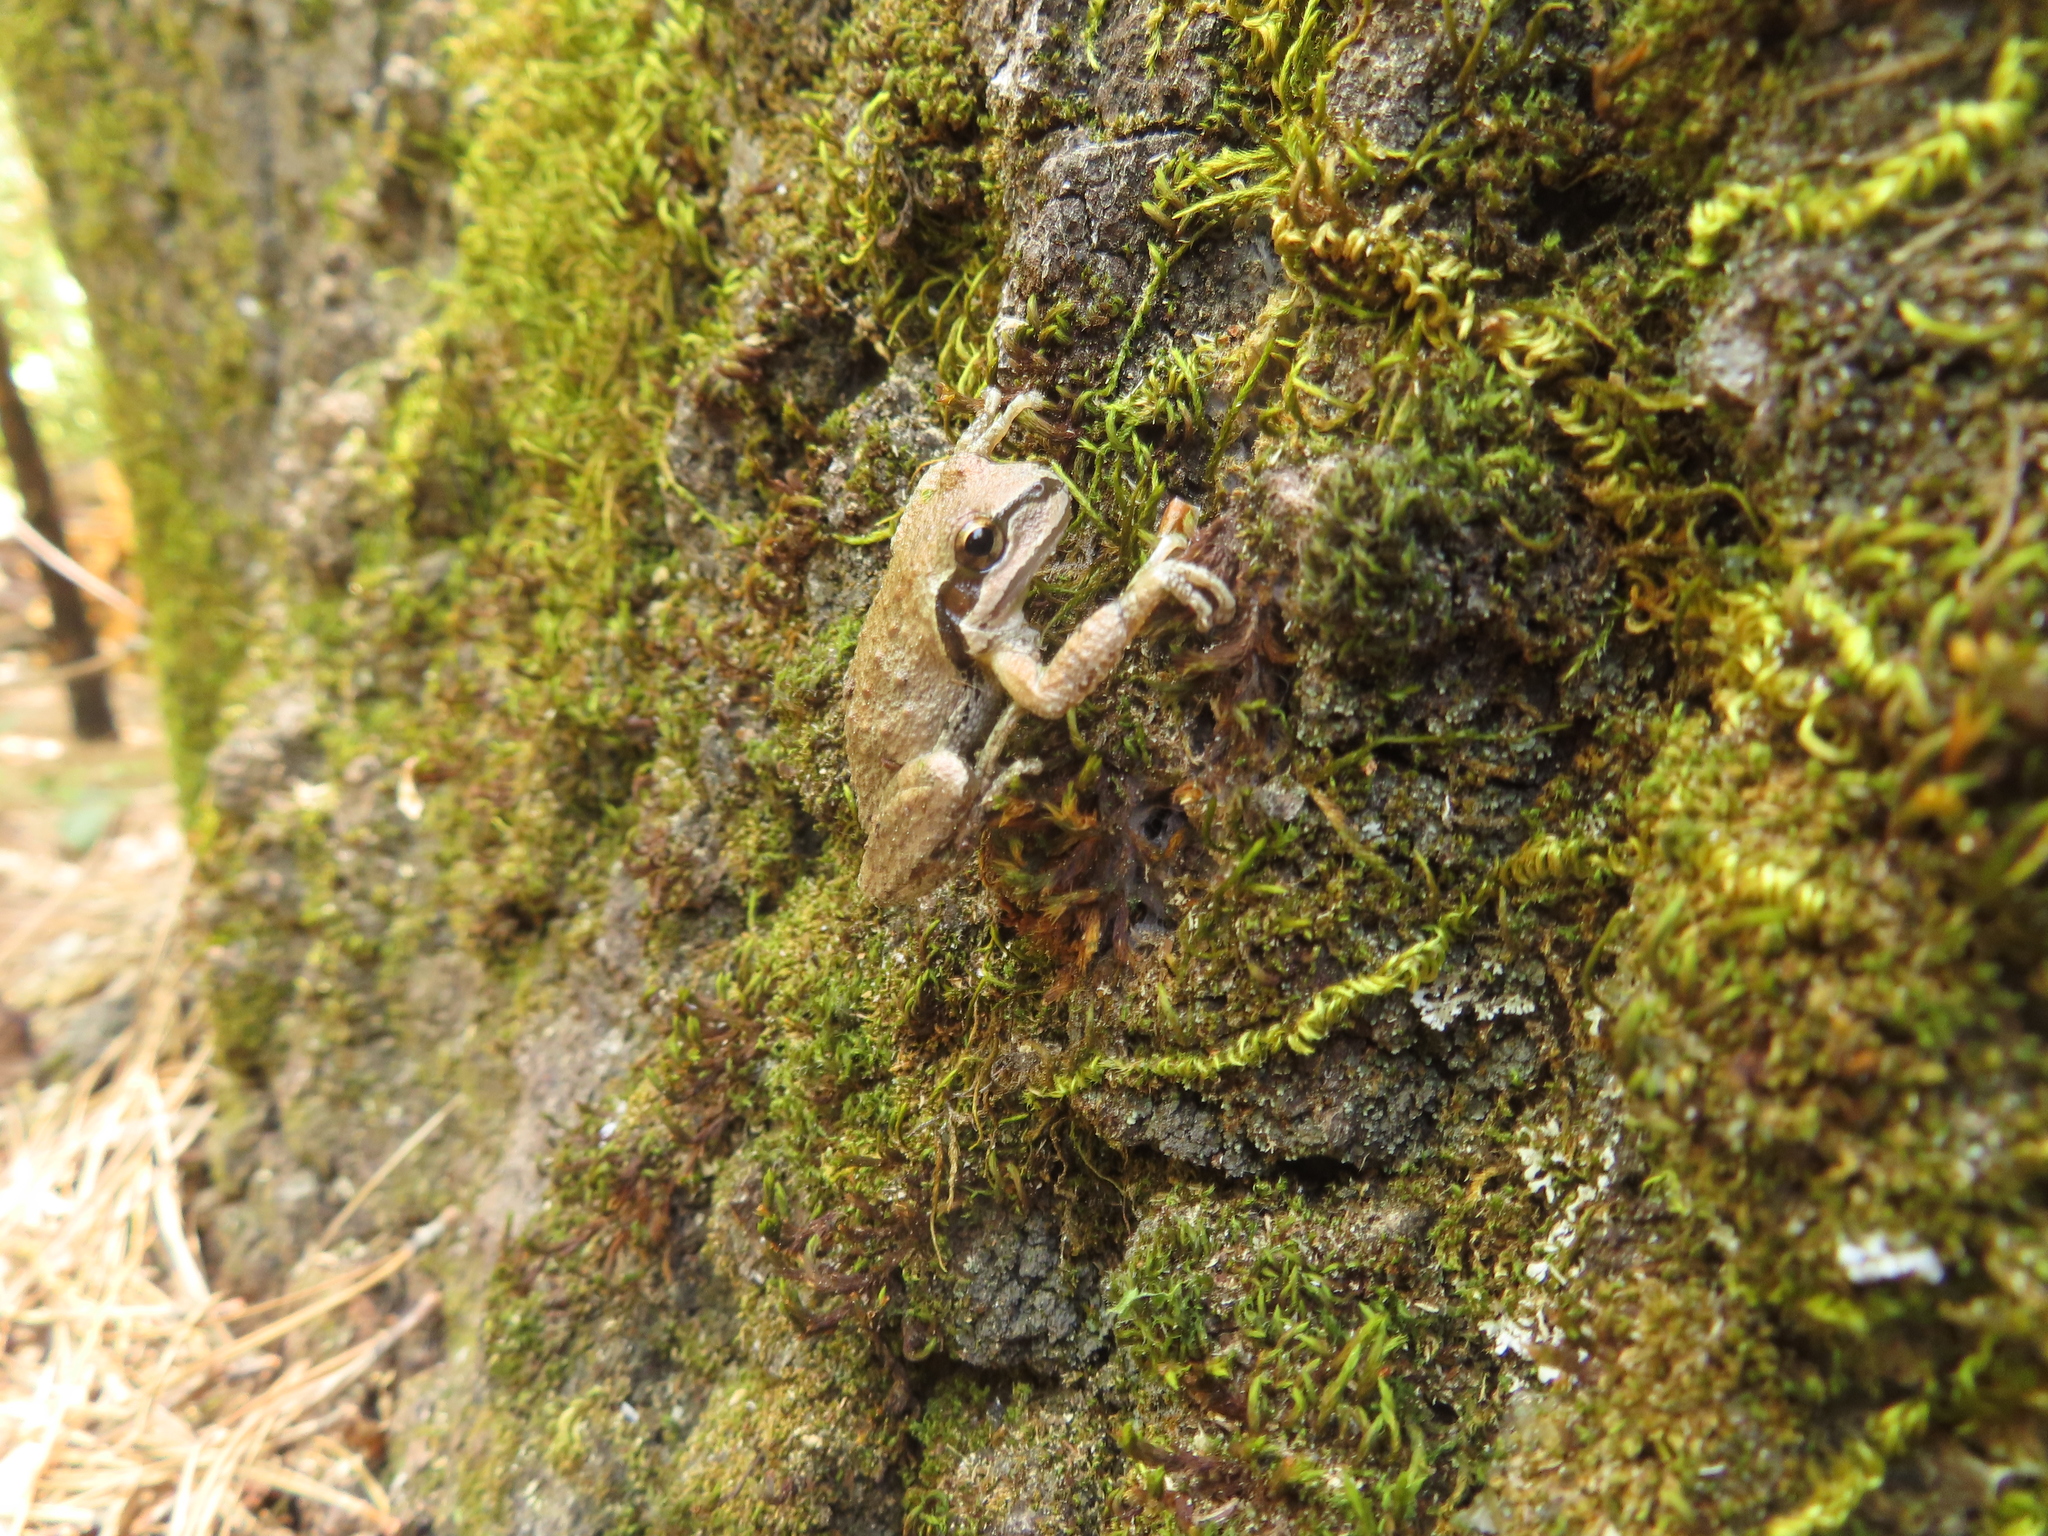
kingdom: Animalia
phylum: Chordata
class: Amphibia
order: Anura
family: Hylidae
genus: Pseudacris
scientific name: Pseudacris regilla
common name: Pacific chorus frog
